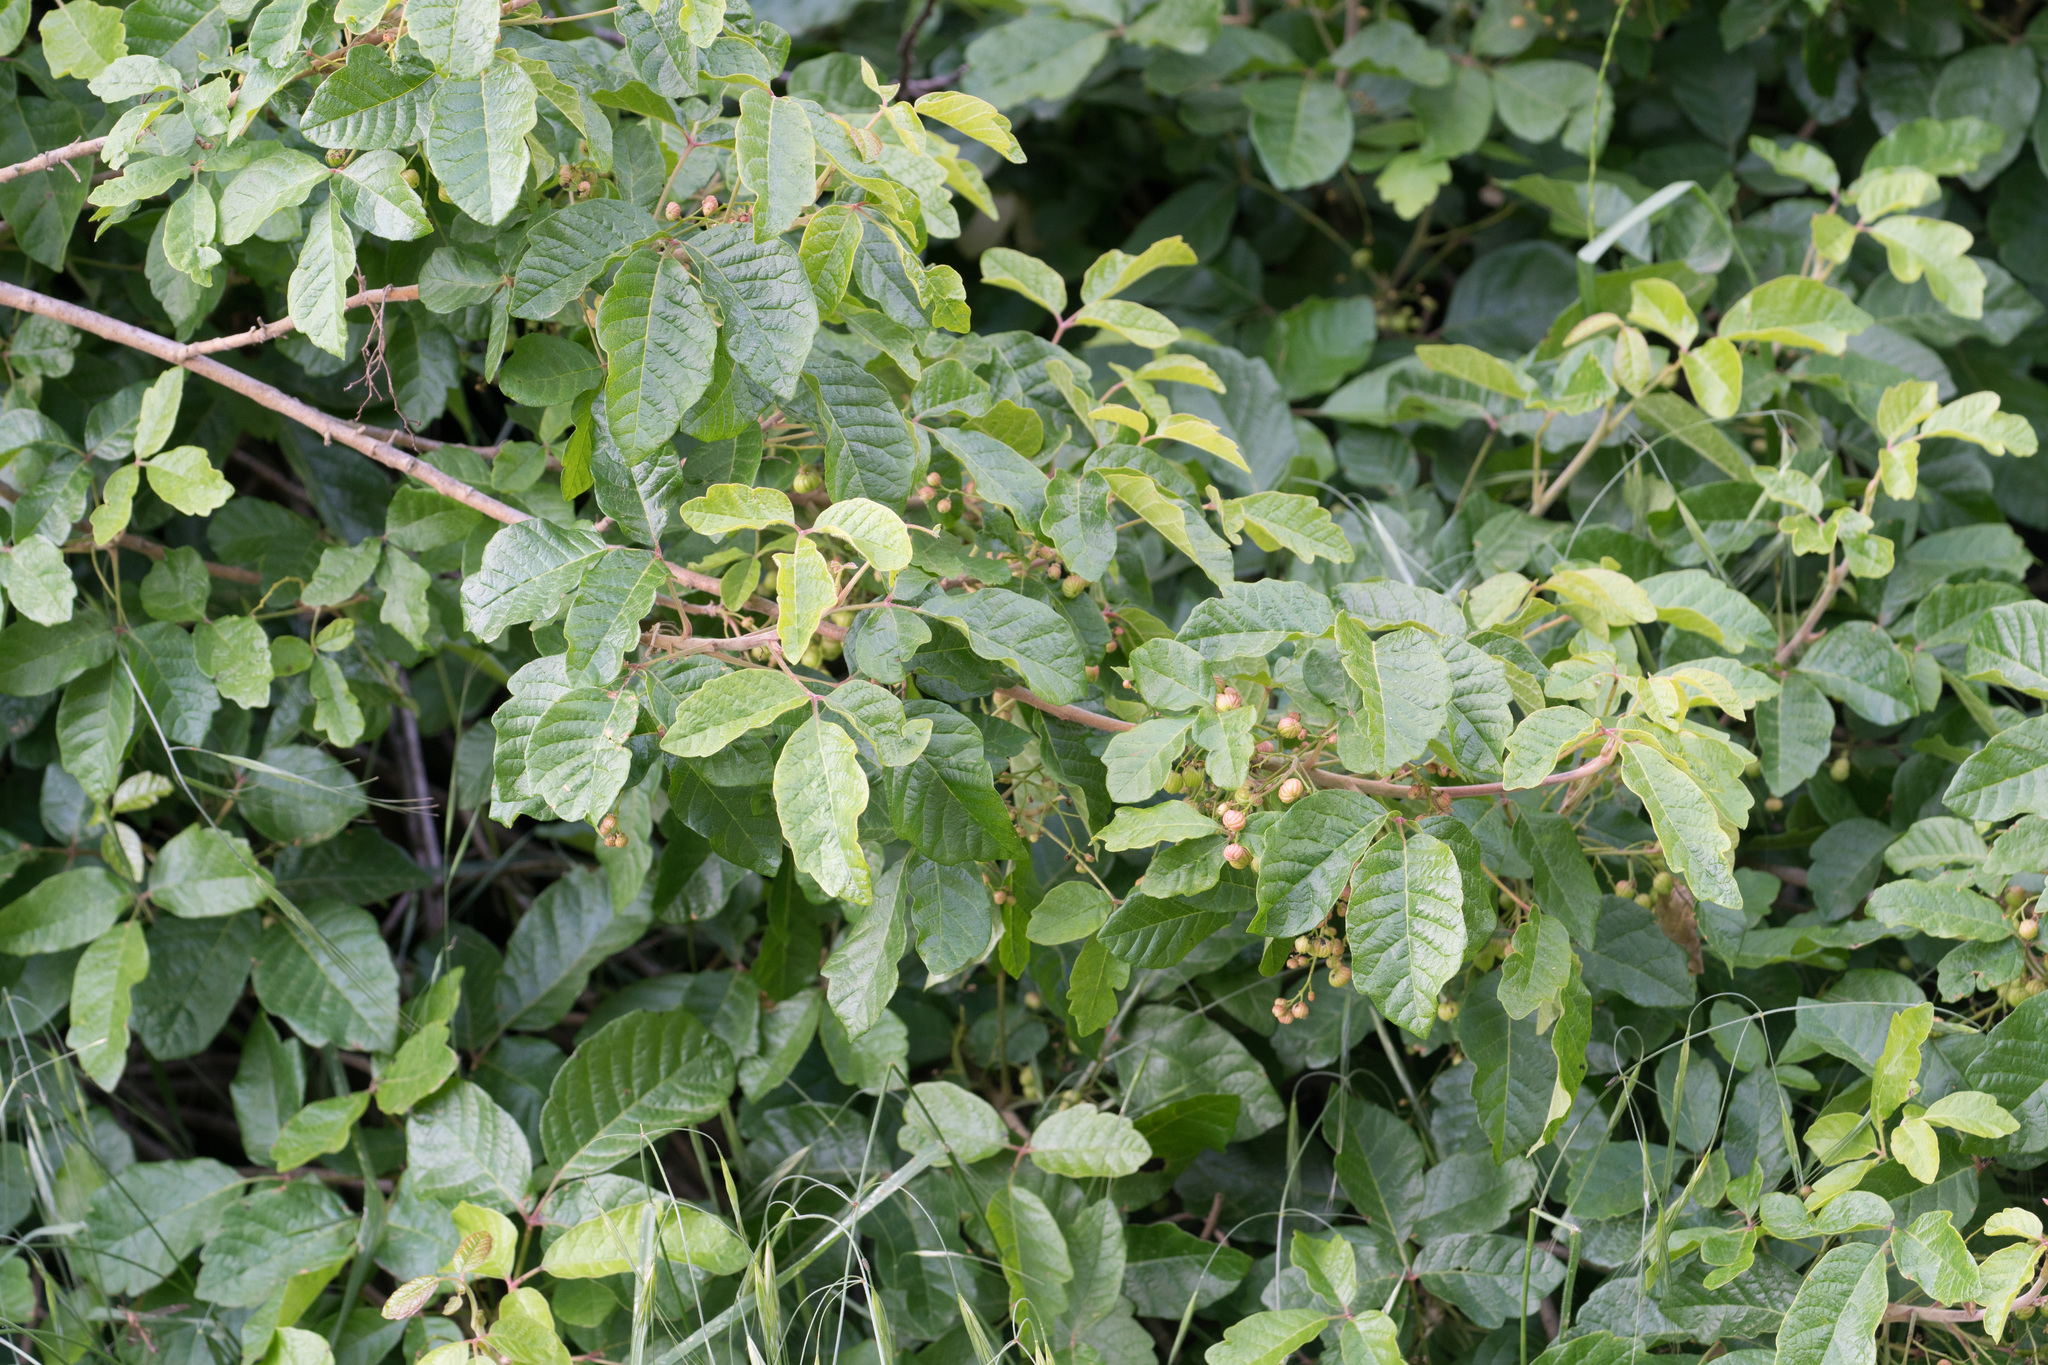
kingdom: Plantae
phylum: Tracheophyta
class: Magnoliopsida
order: Sapindales
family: Anacardiaceae
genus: Toxicodendron
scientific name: Toxicodendron diversilobum
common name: Pacific poison-oak
